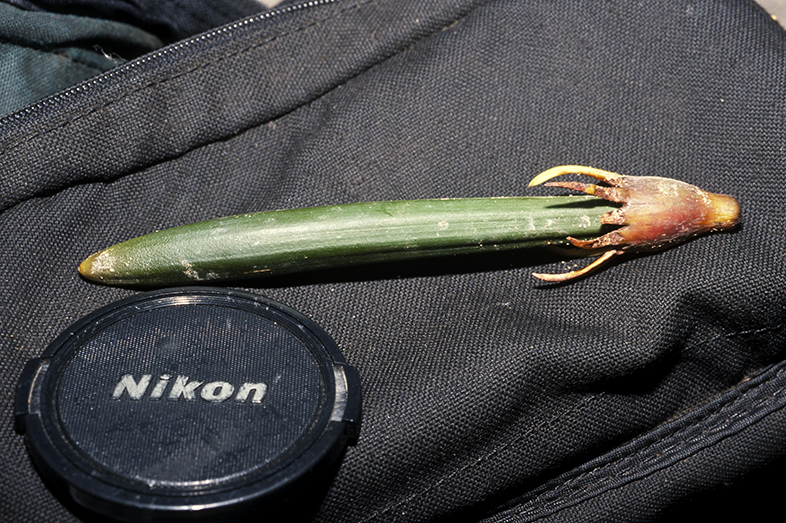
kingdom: Plantae
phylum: Tracheophyta
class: Magnoliopsida
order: Malpighiales
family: Rhizophoraceae
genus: Bruguiera
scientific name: Bruguiera gymnorhiza
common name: Oriental mangrove
